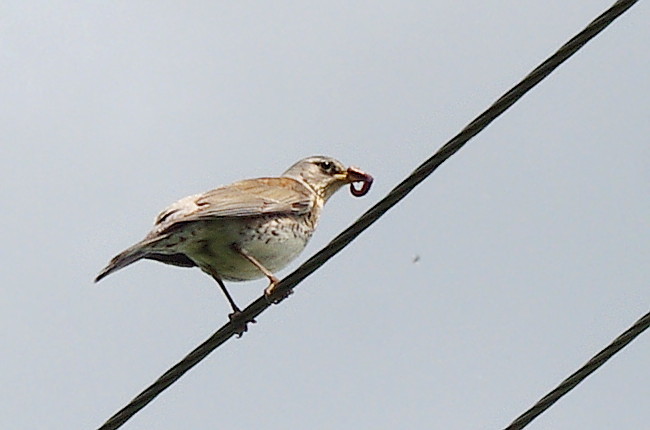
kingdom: Animalia
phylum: Chordata
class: Aves
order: Passeriformes
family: Turdidae
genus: Turdus
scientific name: Turdus pilaris
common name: Fieldfare
